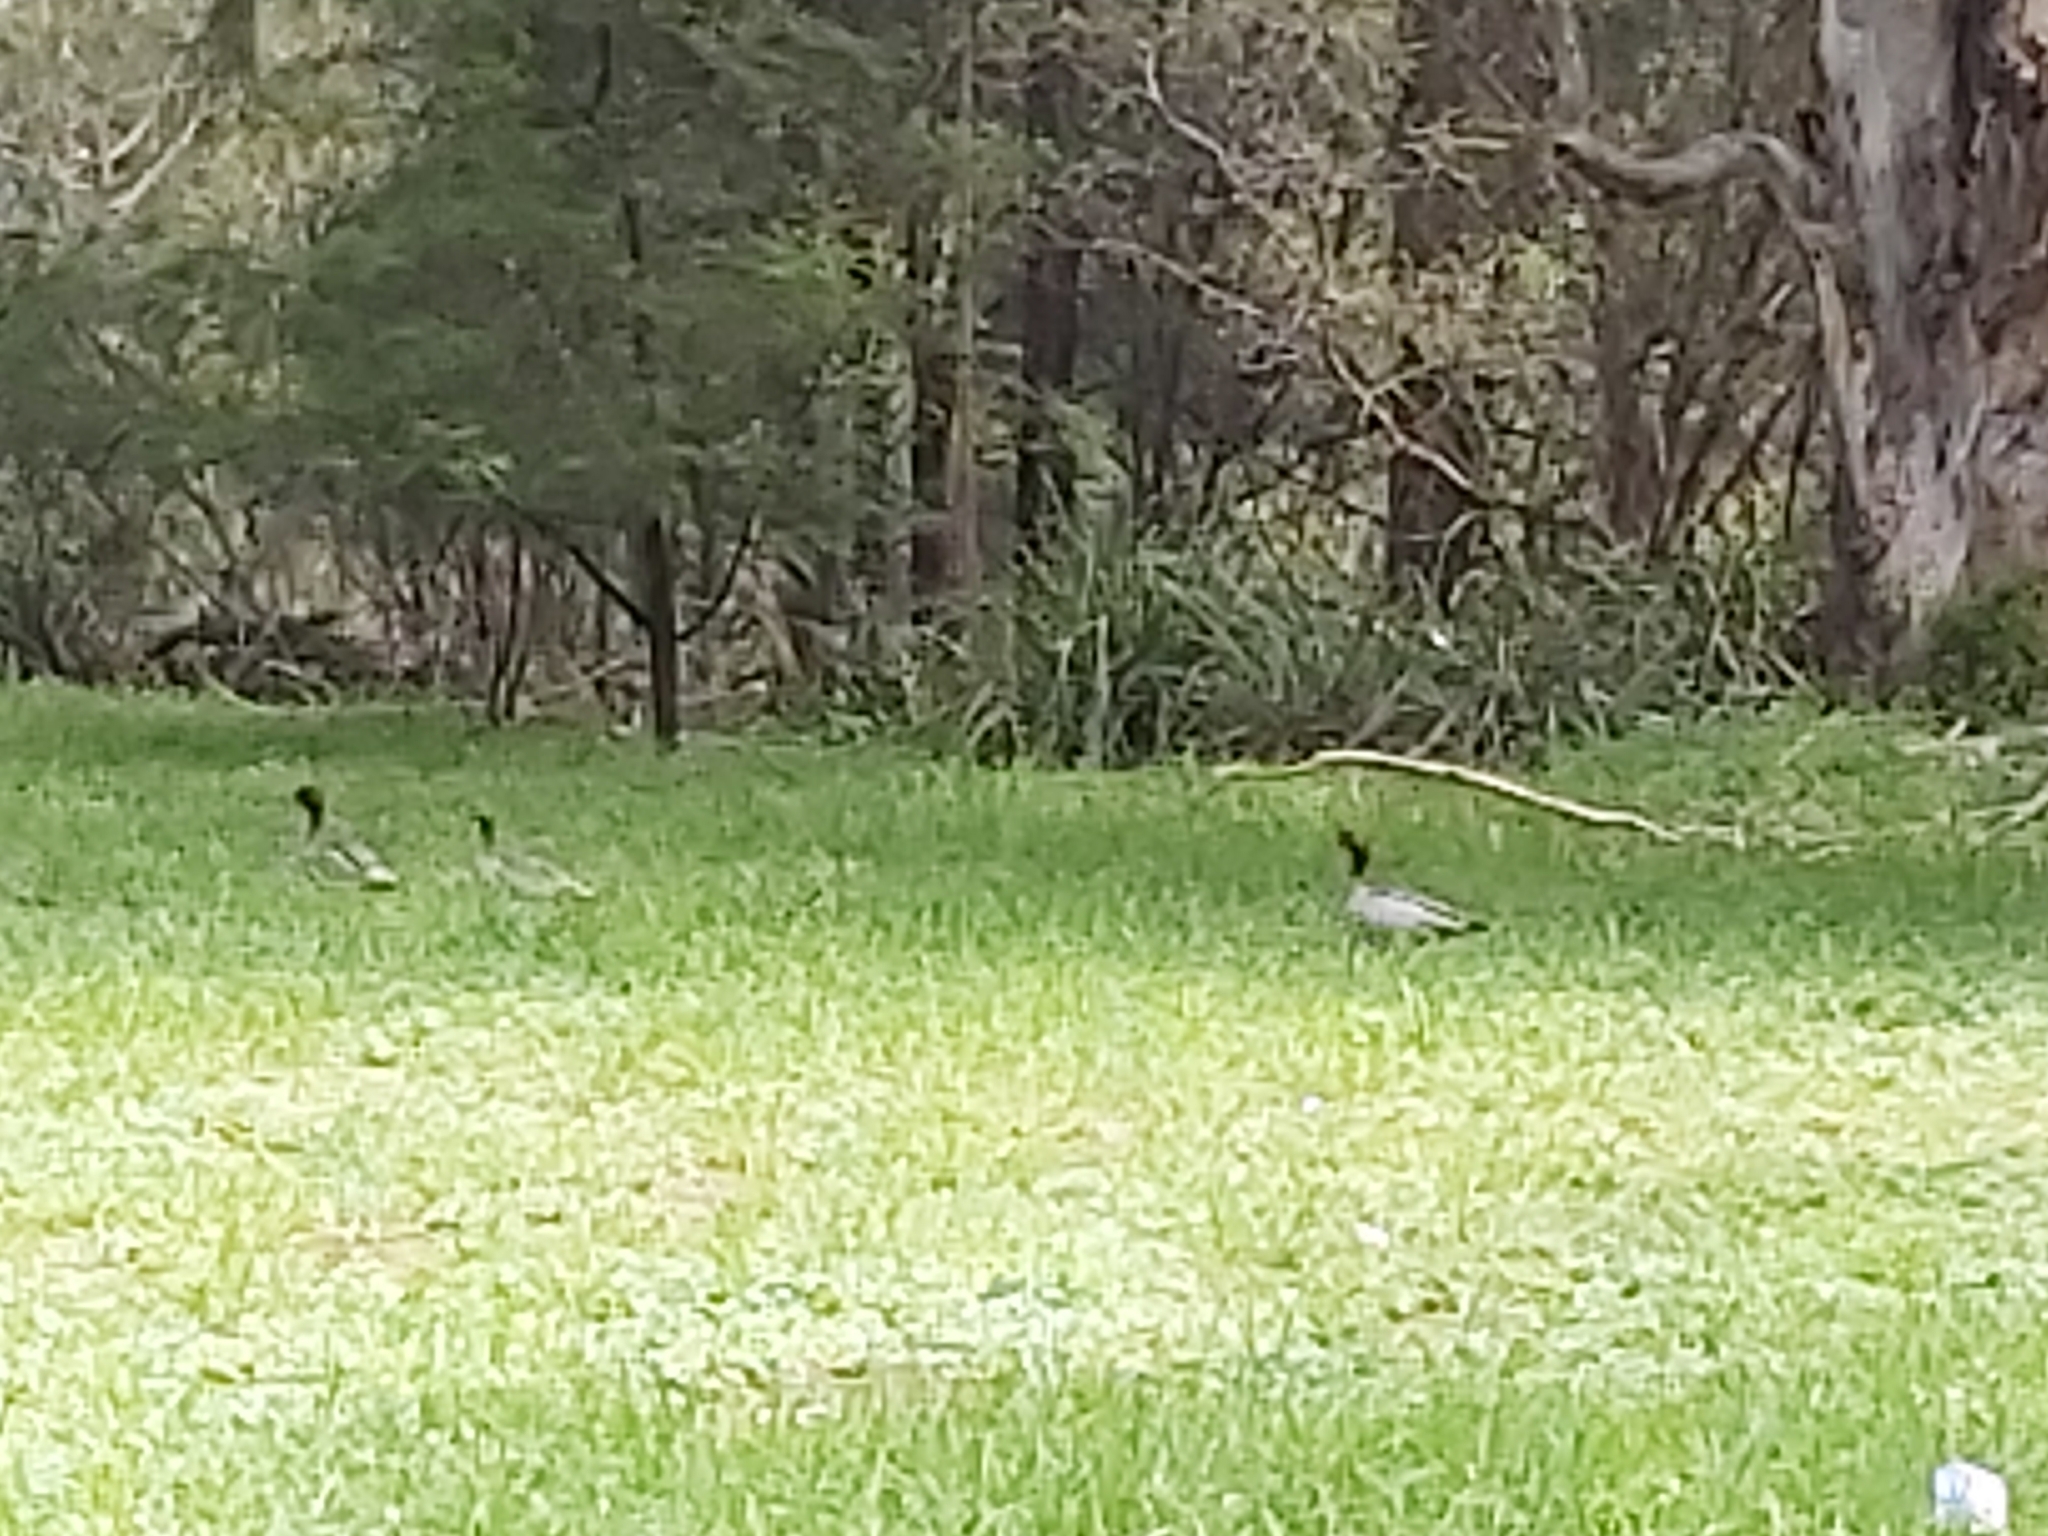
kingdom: Animalia
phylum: Chordata
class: Aves
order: Anseriformes
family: Anatidae
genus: Chenonetta
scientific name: Chenonetta jubata
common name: Maned duck
